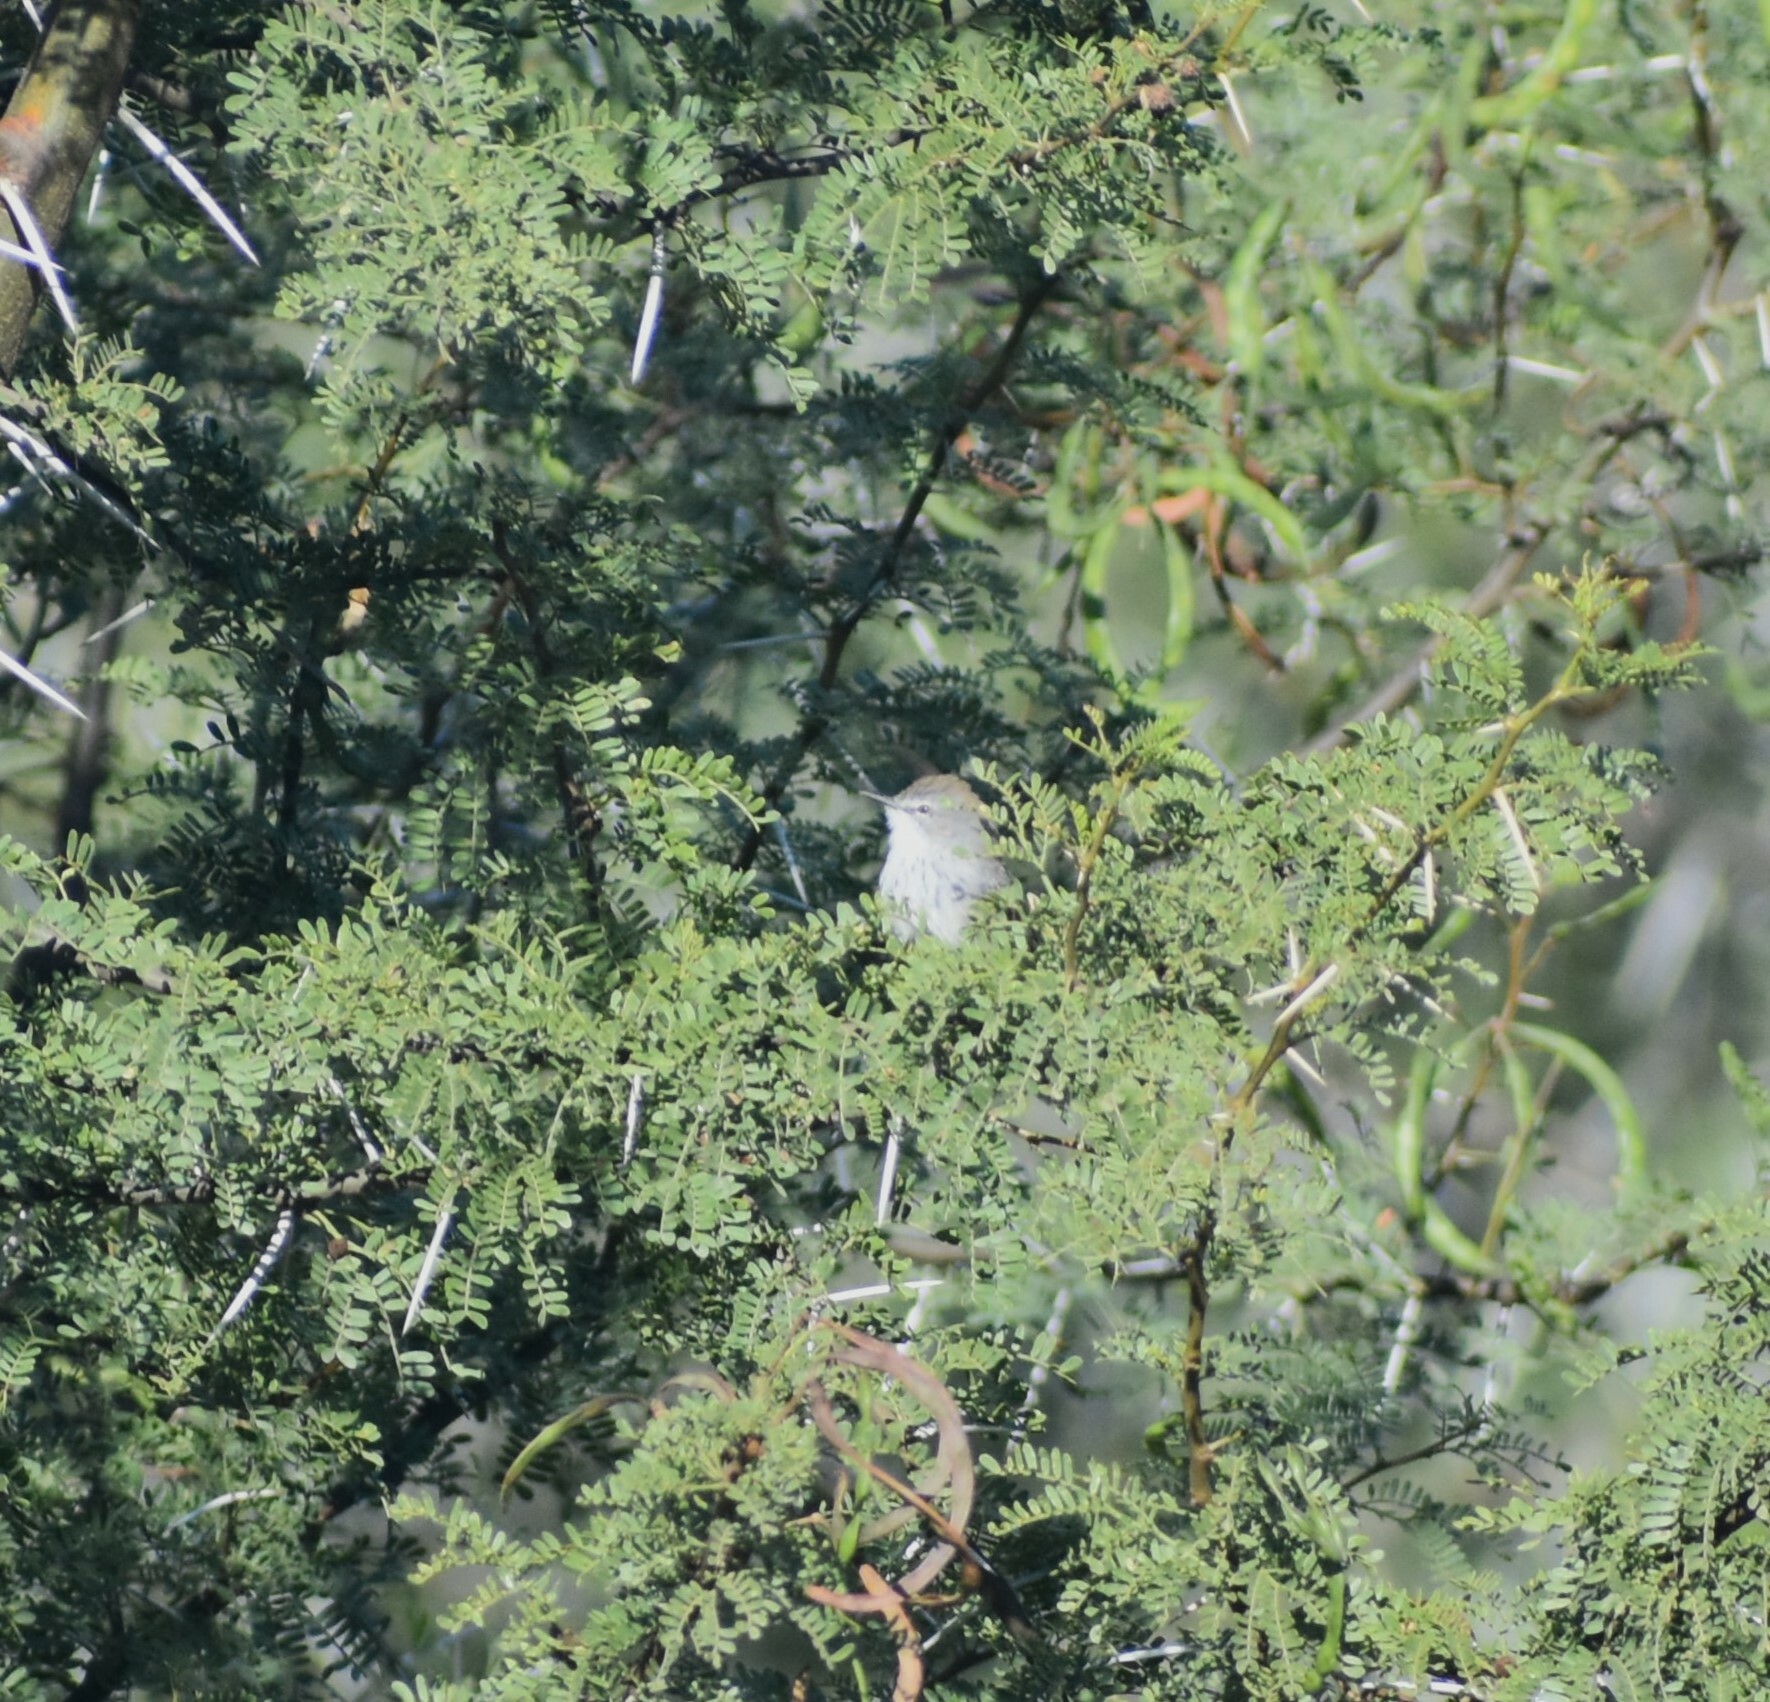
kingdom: Animalia
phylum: Chordata
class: Aves
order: Passeriformes
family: Cisticolidae
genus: Phragmacia
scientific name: Phragmacia substriata
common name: Namaqua warbler
